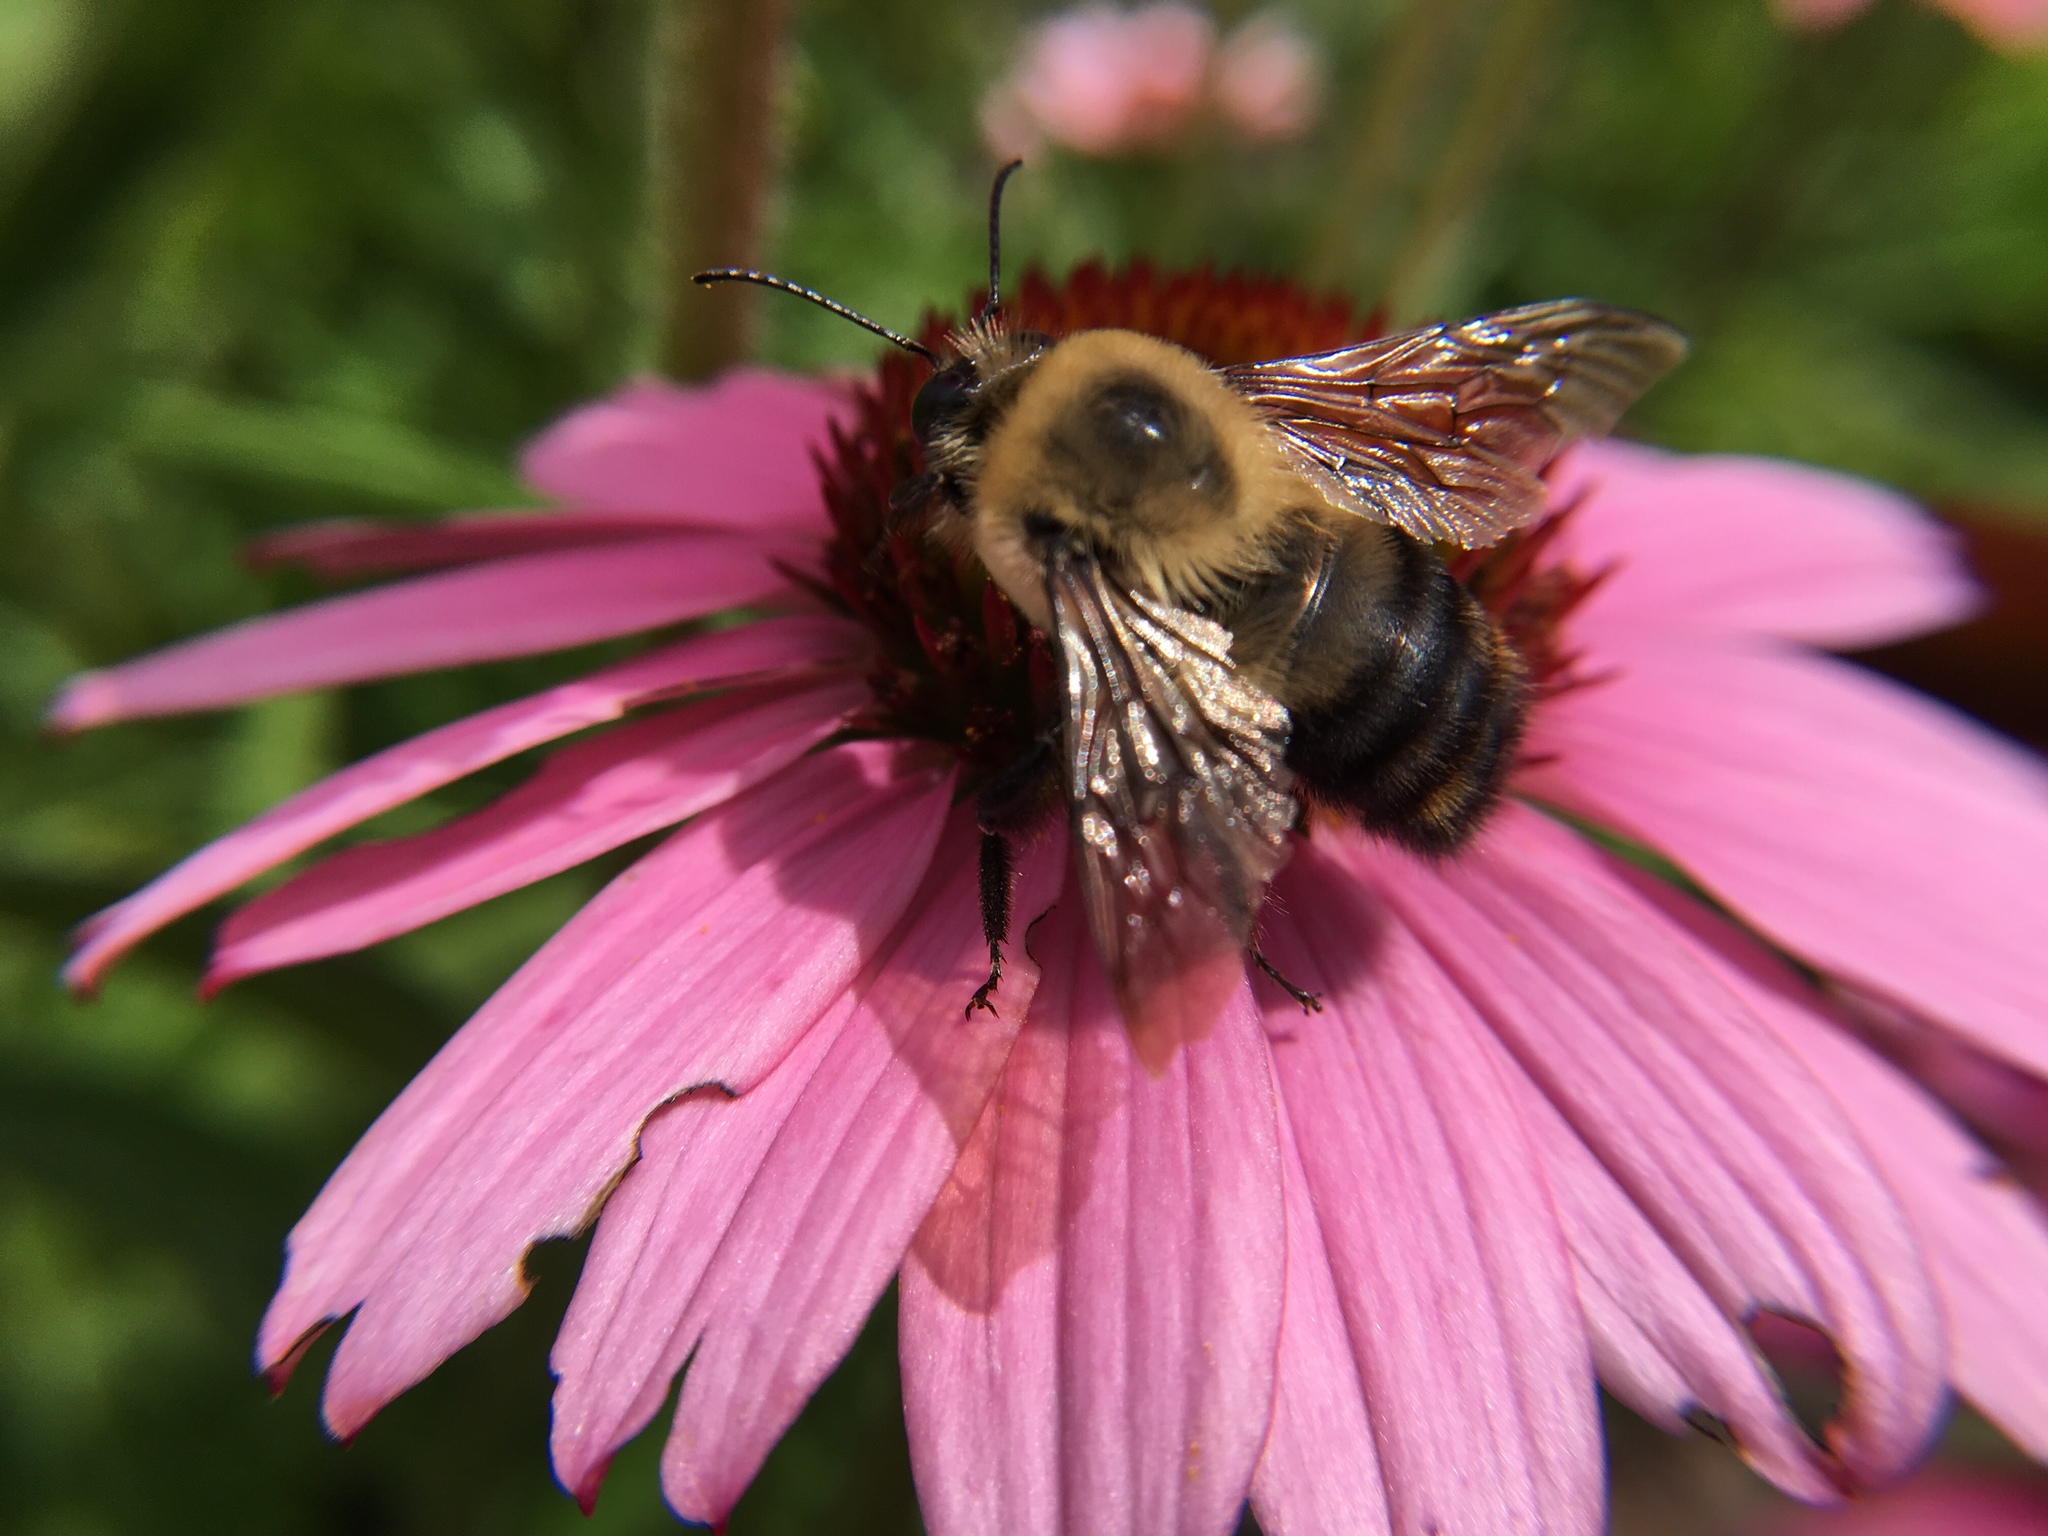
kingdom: Animalia
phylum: Arthropoda
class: Insecta
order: Hymenoptera
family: Apidae
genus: Bombus
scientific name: Bombus griseocollis
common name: Brown-belted bumble bee
